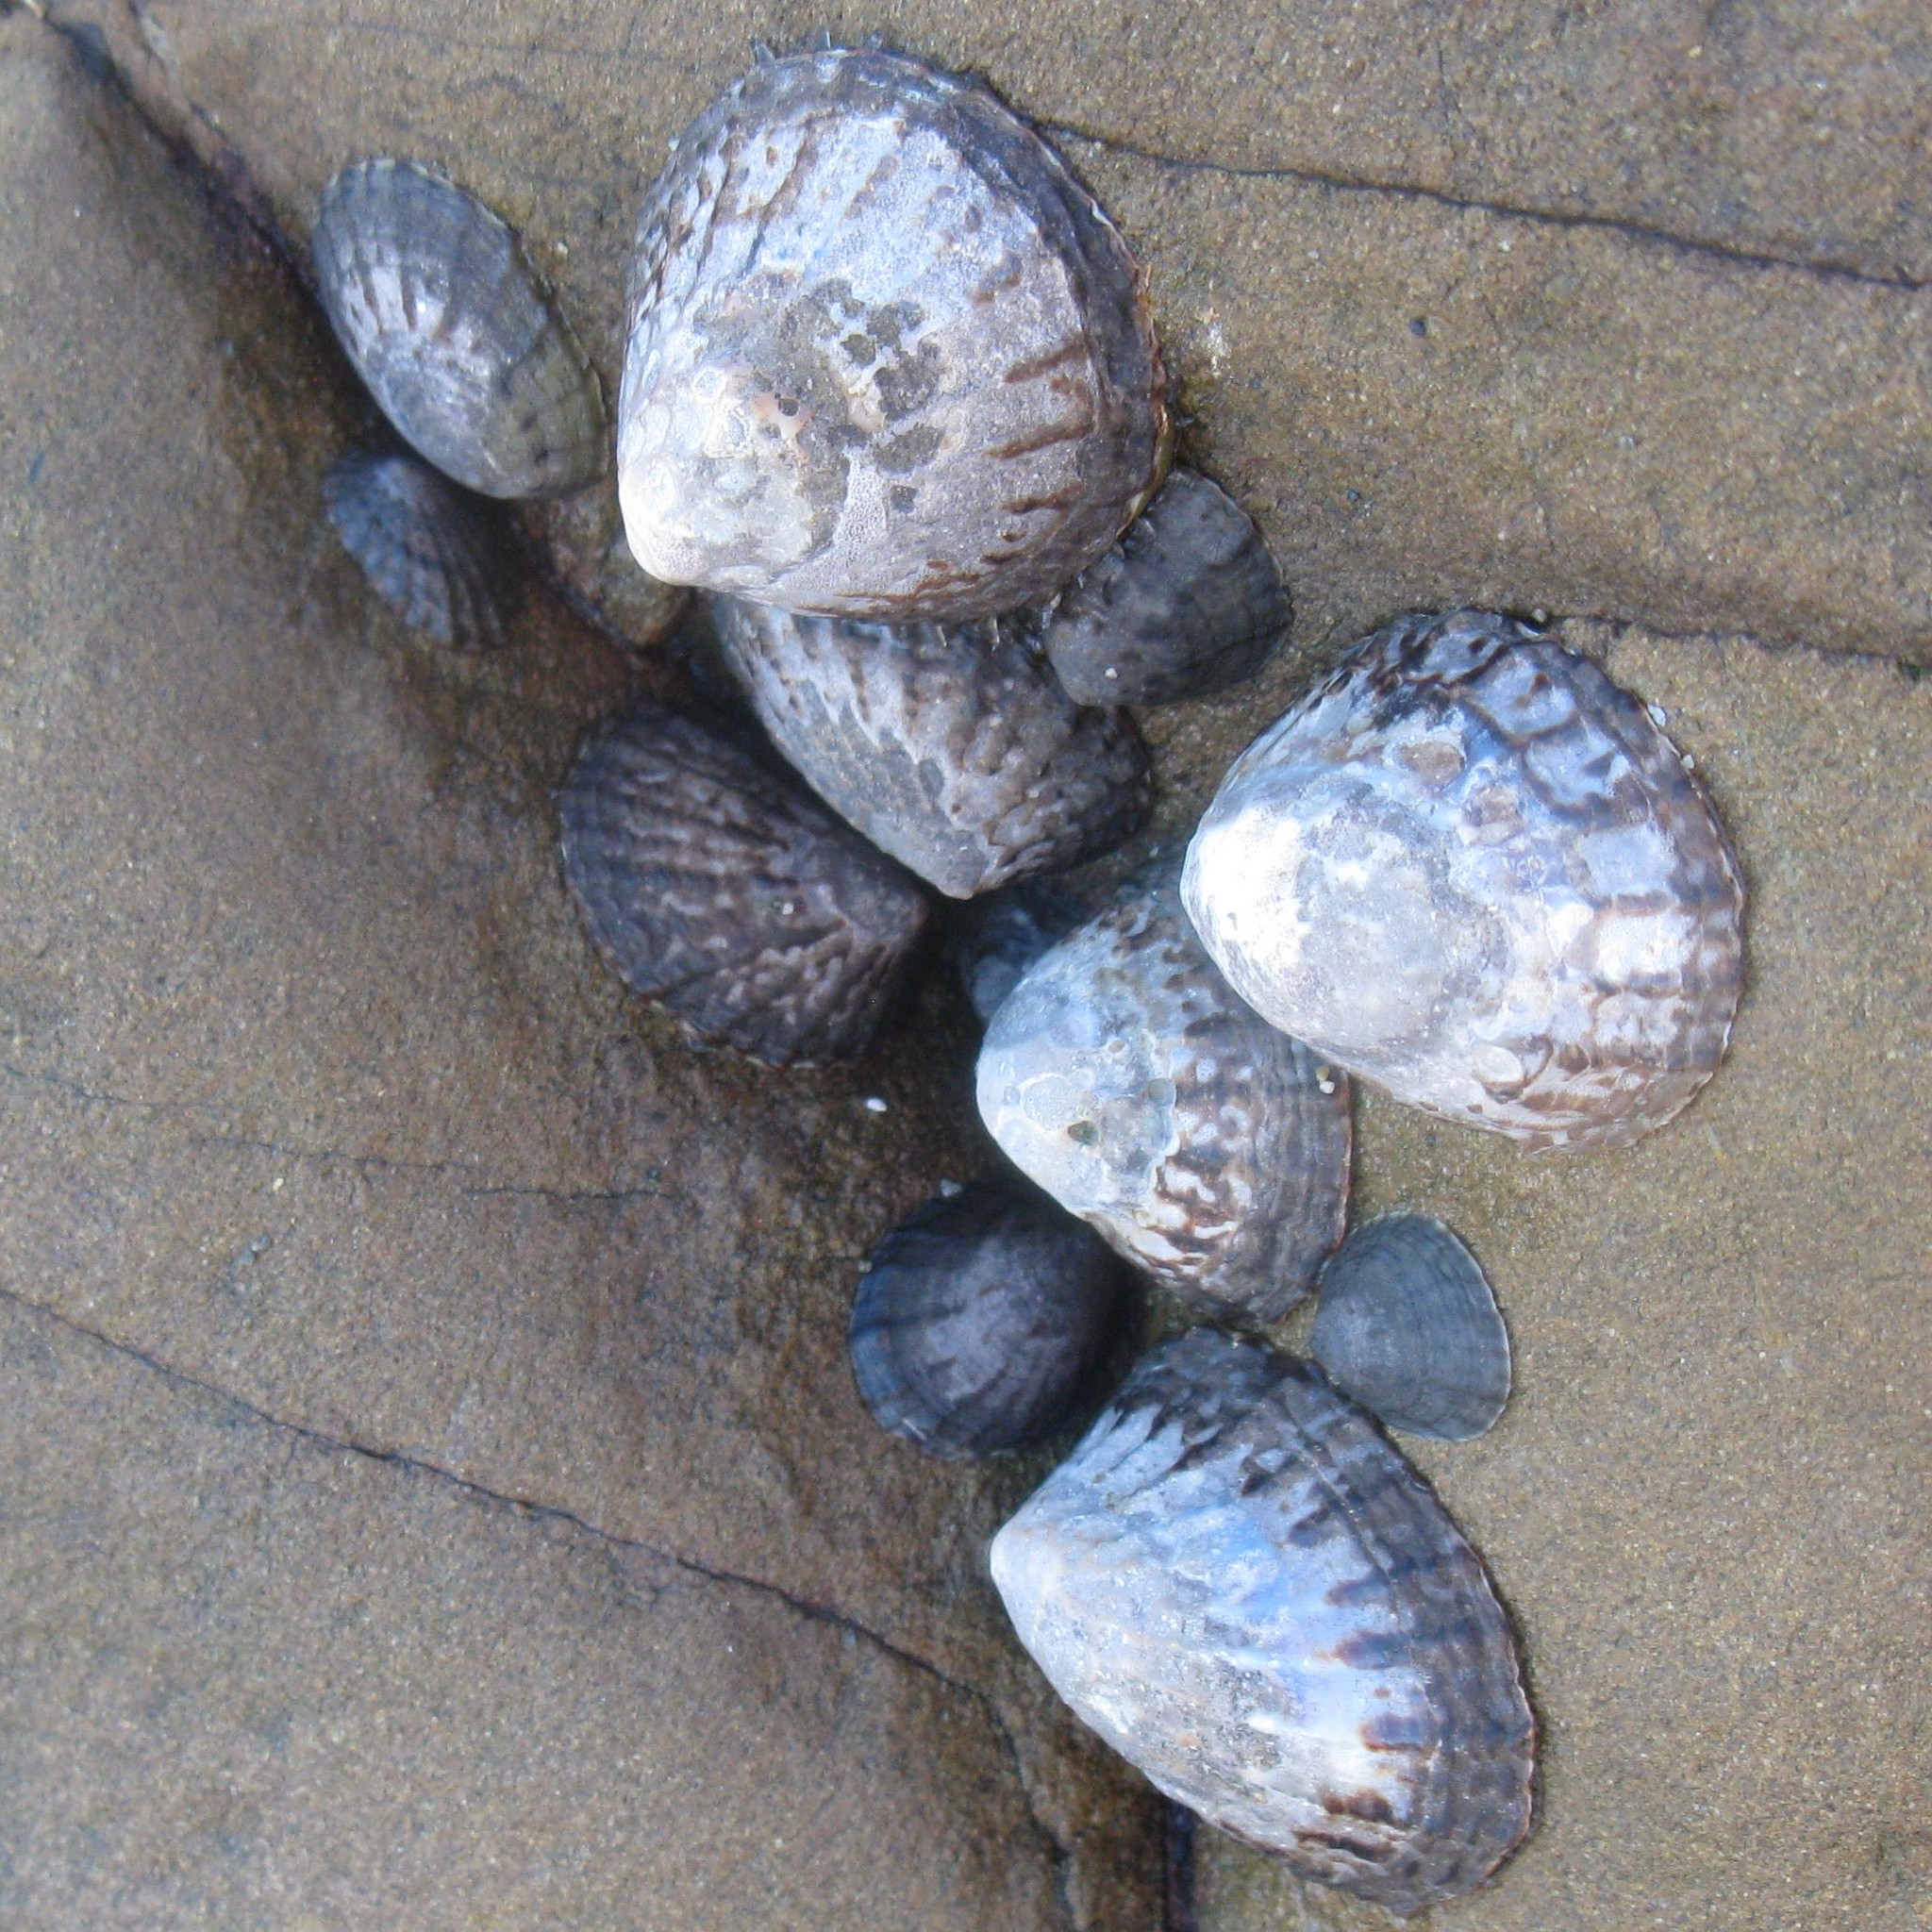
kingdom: Animalia
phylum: Mollusca
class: Gastropoda
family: Nacellidae
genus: Cellana
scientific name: Cellana denticulata
